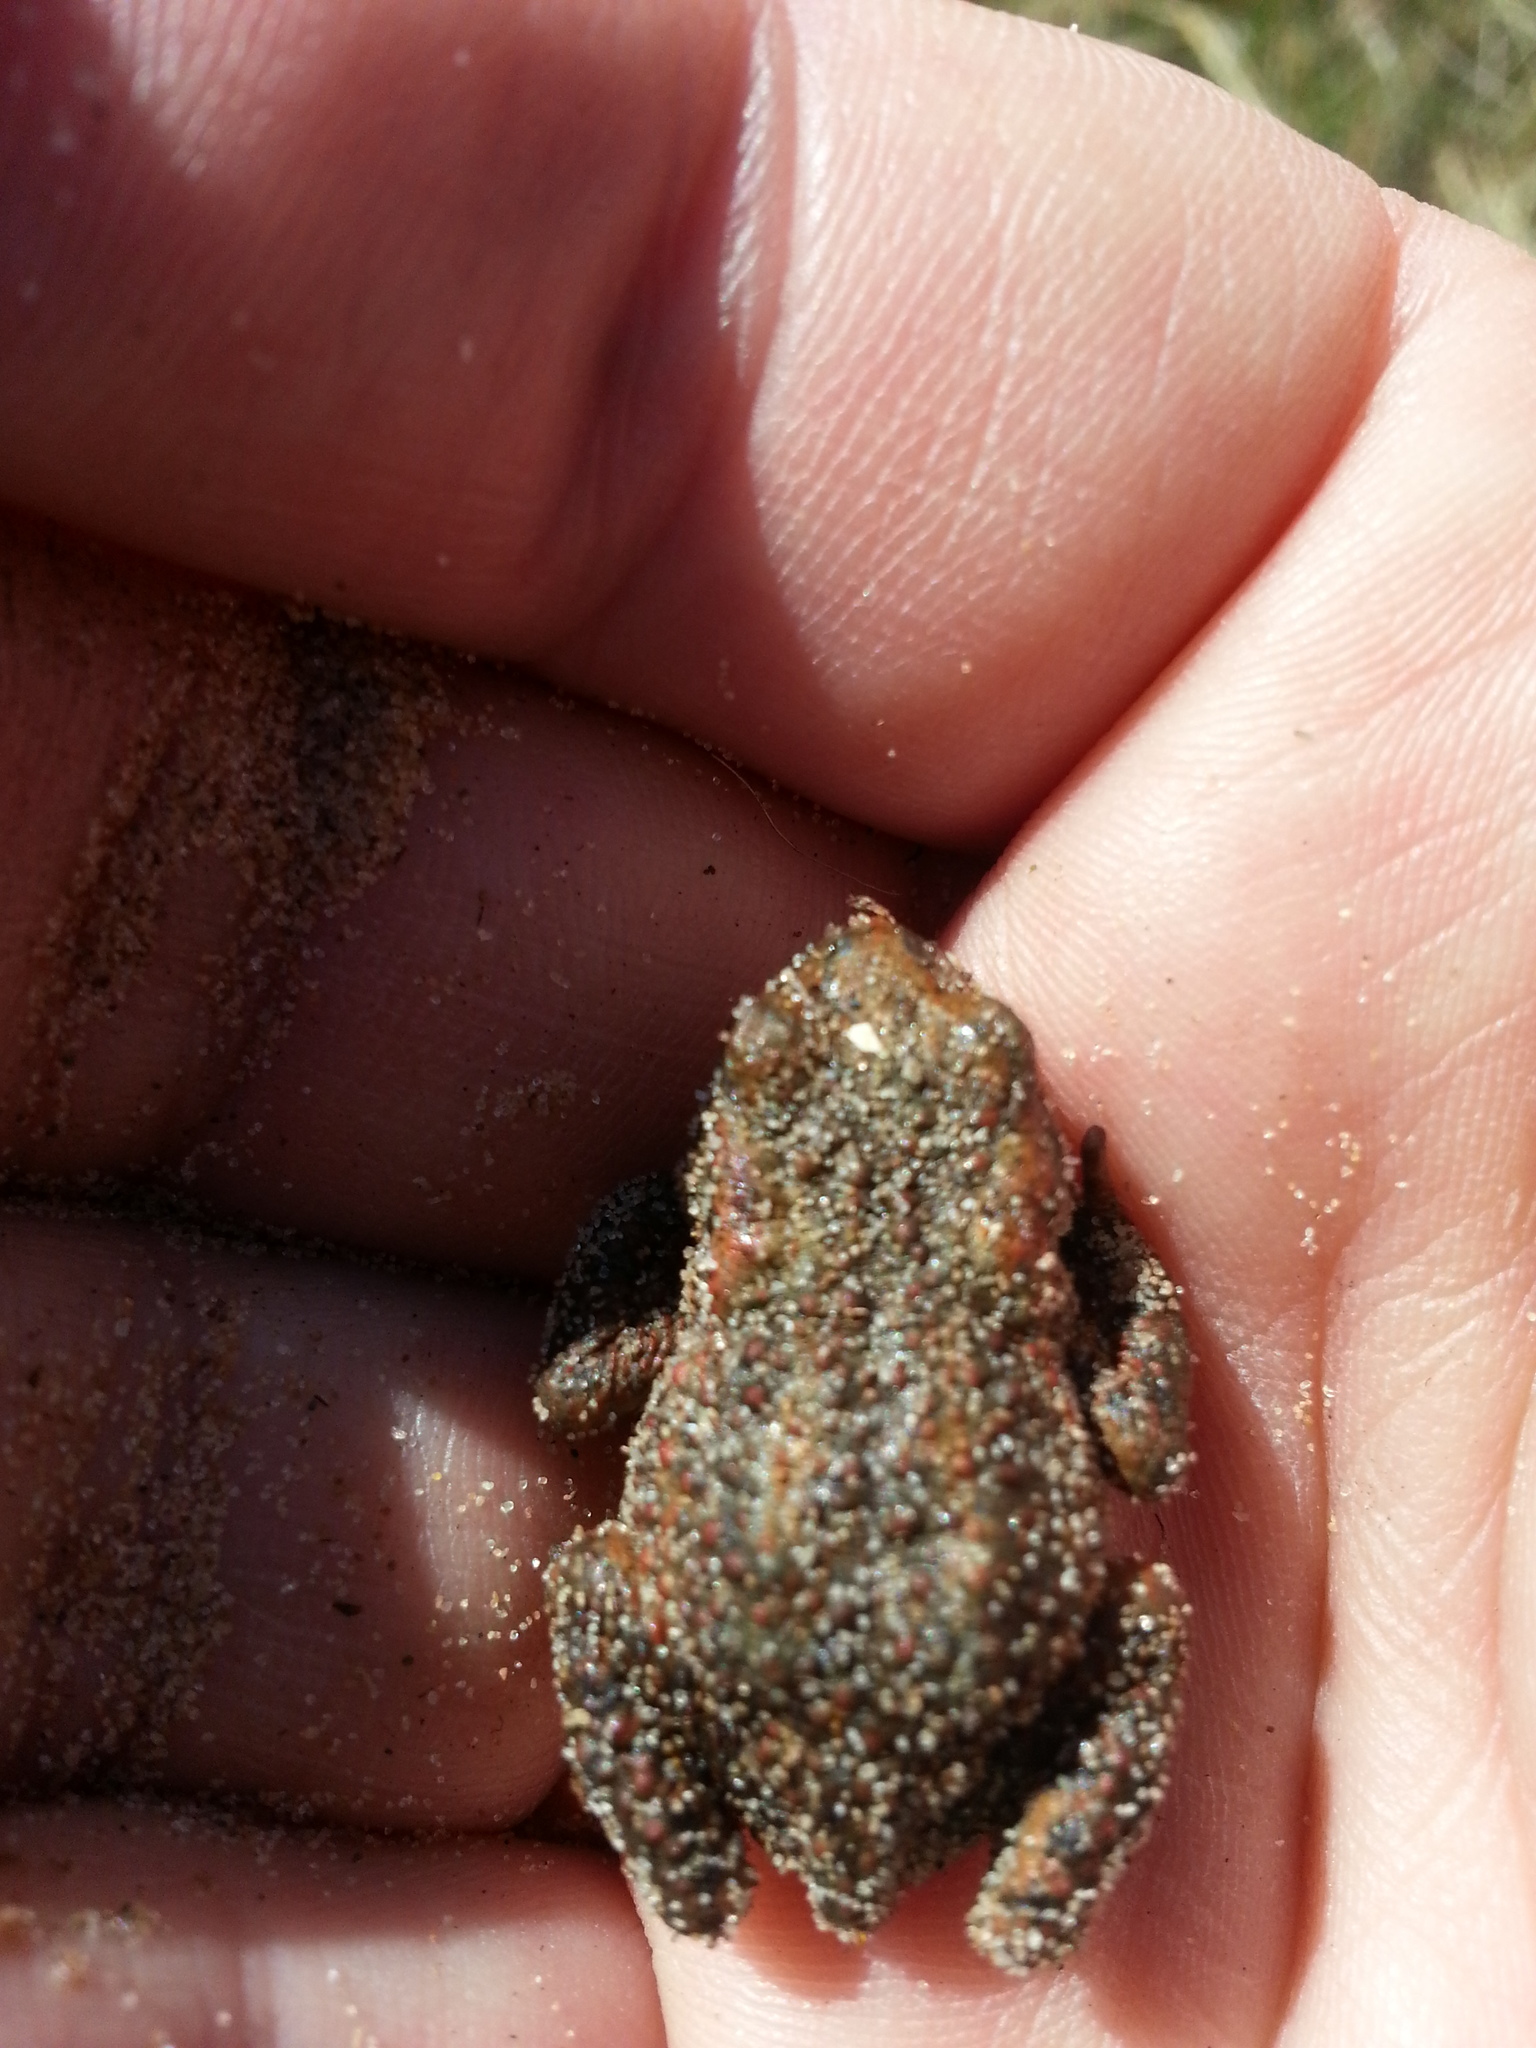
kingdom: Animalia
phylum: Chordata
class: Amphibia
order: Anura
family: Bufonidae
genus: Bufo
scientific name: Bufo bufo
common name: Common toad
